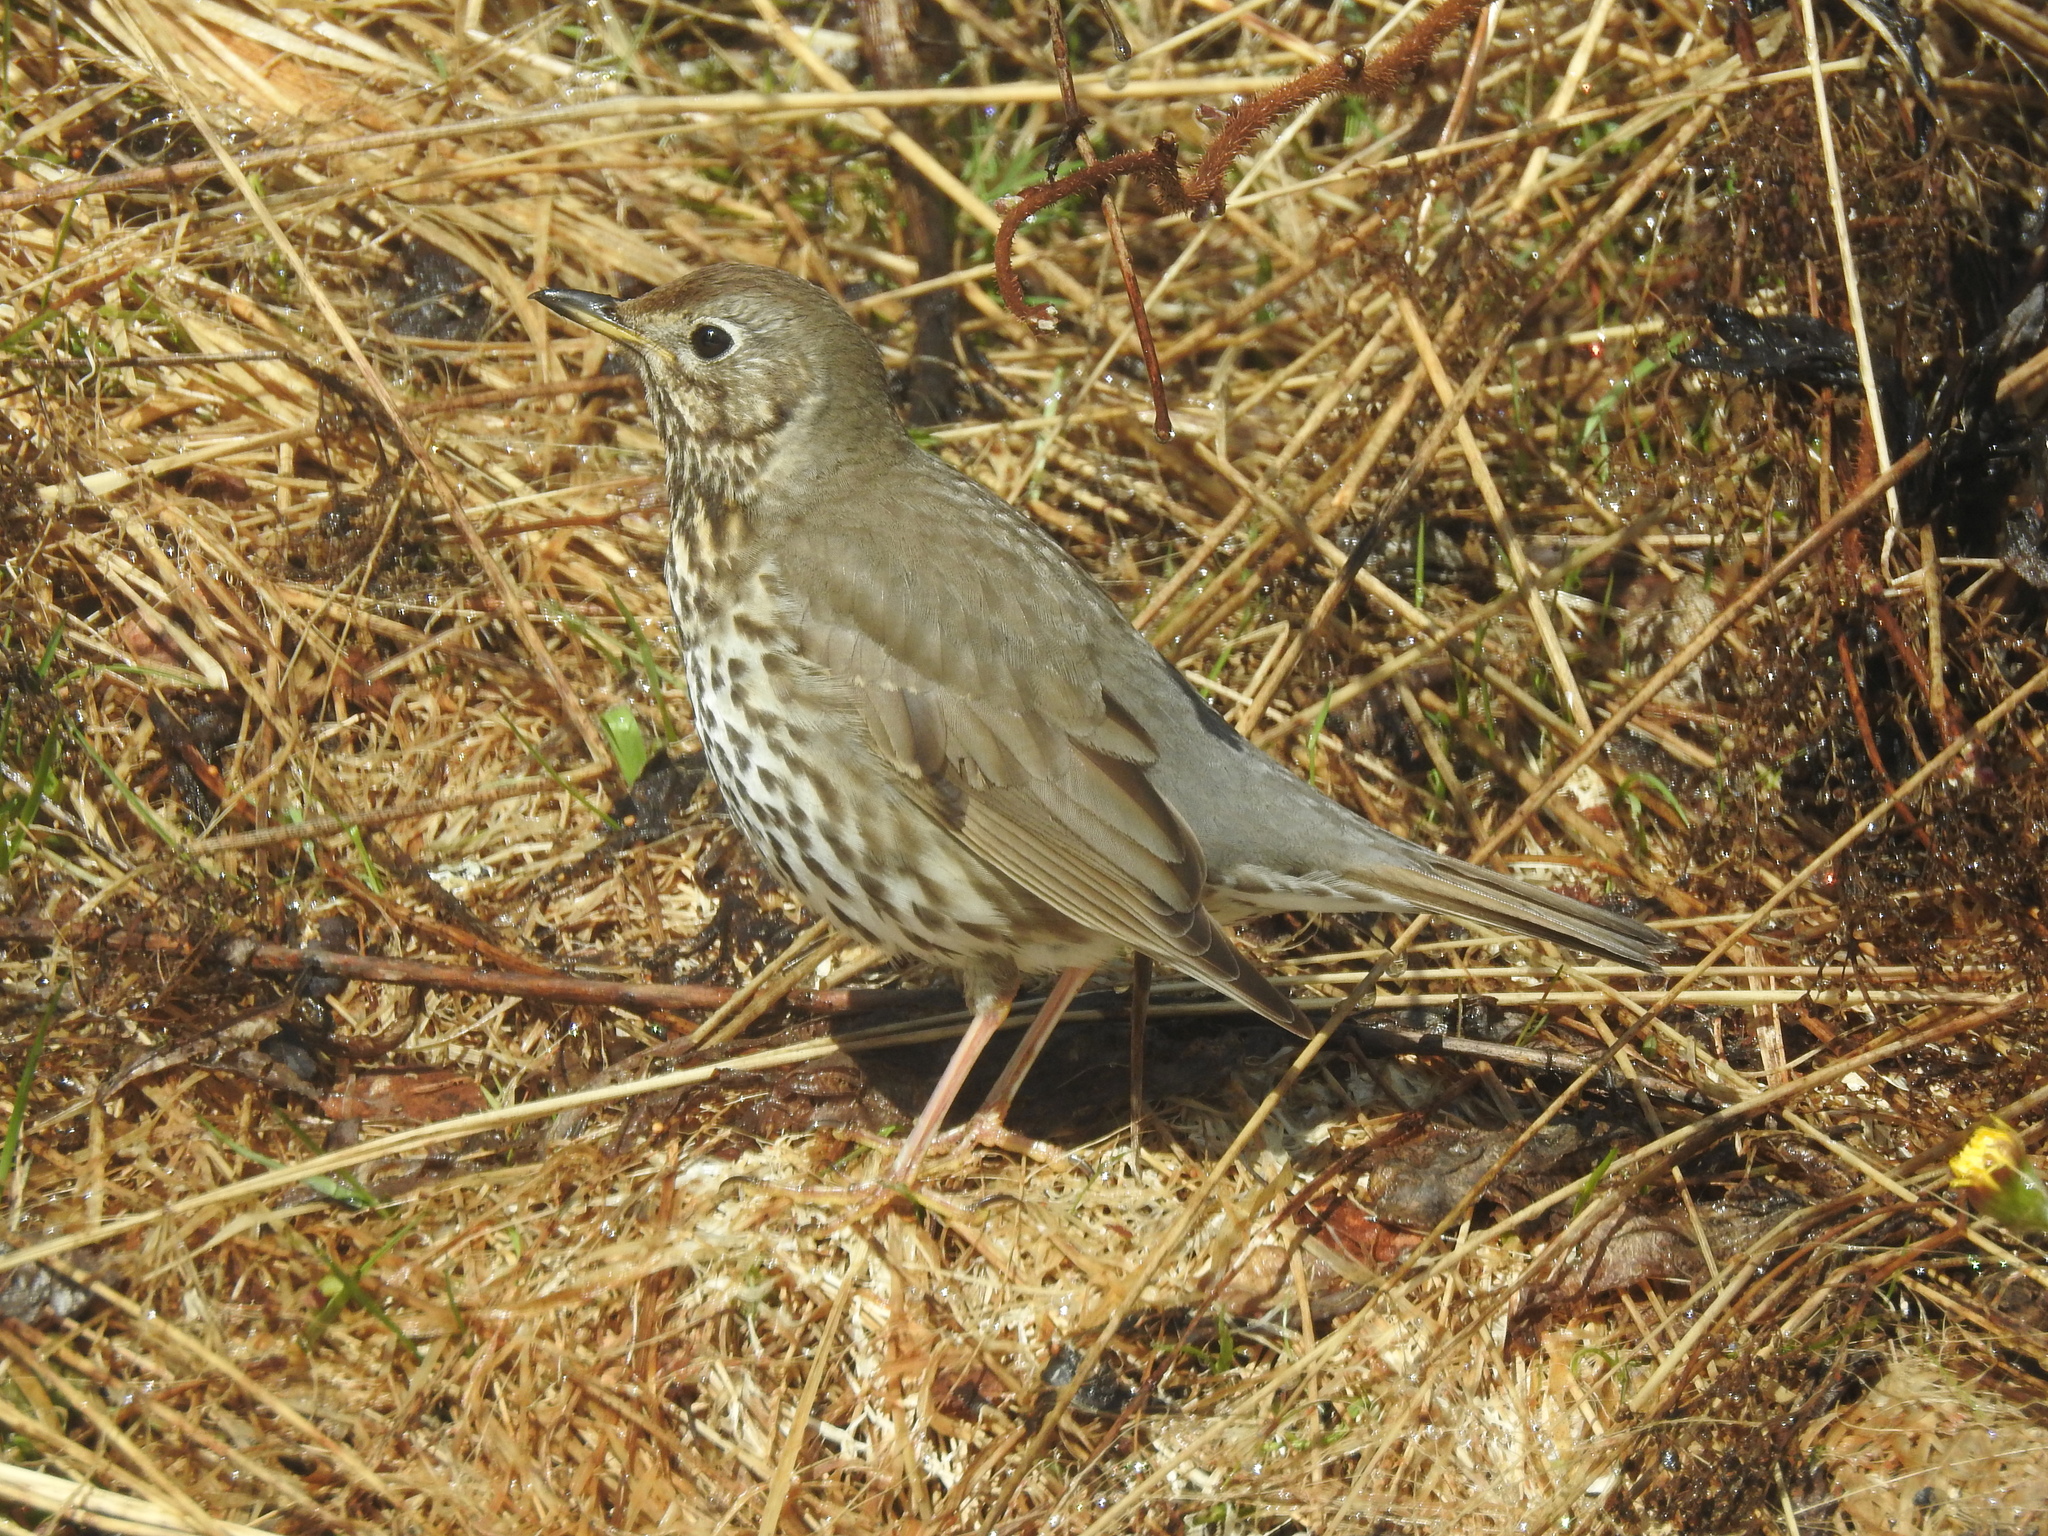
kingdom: Animalia
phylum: Chordata
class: Aves
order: Passeriformes
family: Turdidae
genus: Turdus
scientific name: Turdus philomelos
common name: Song thrush
